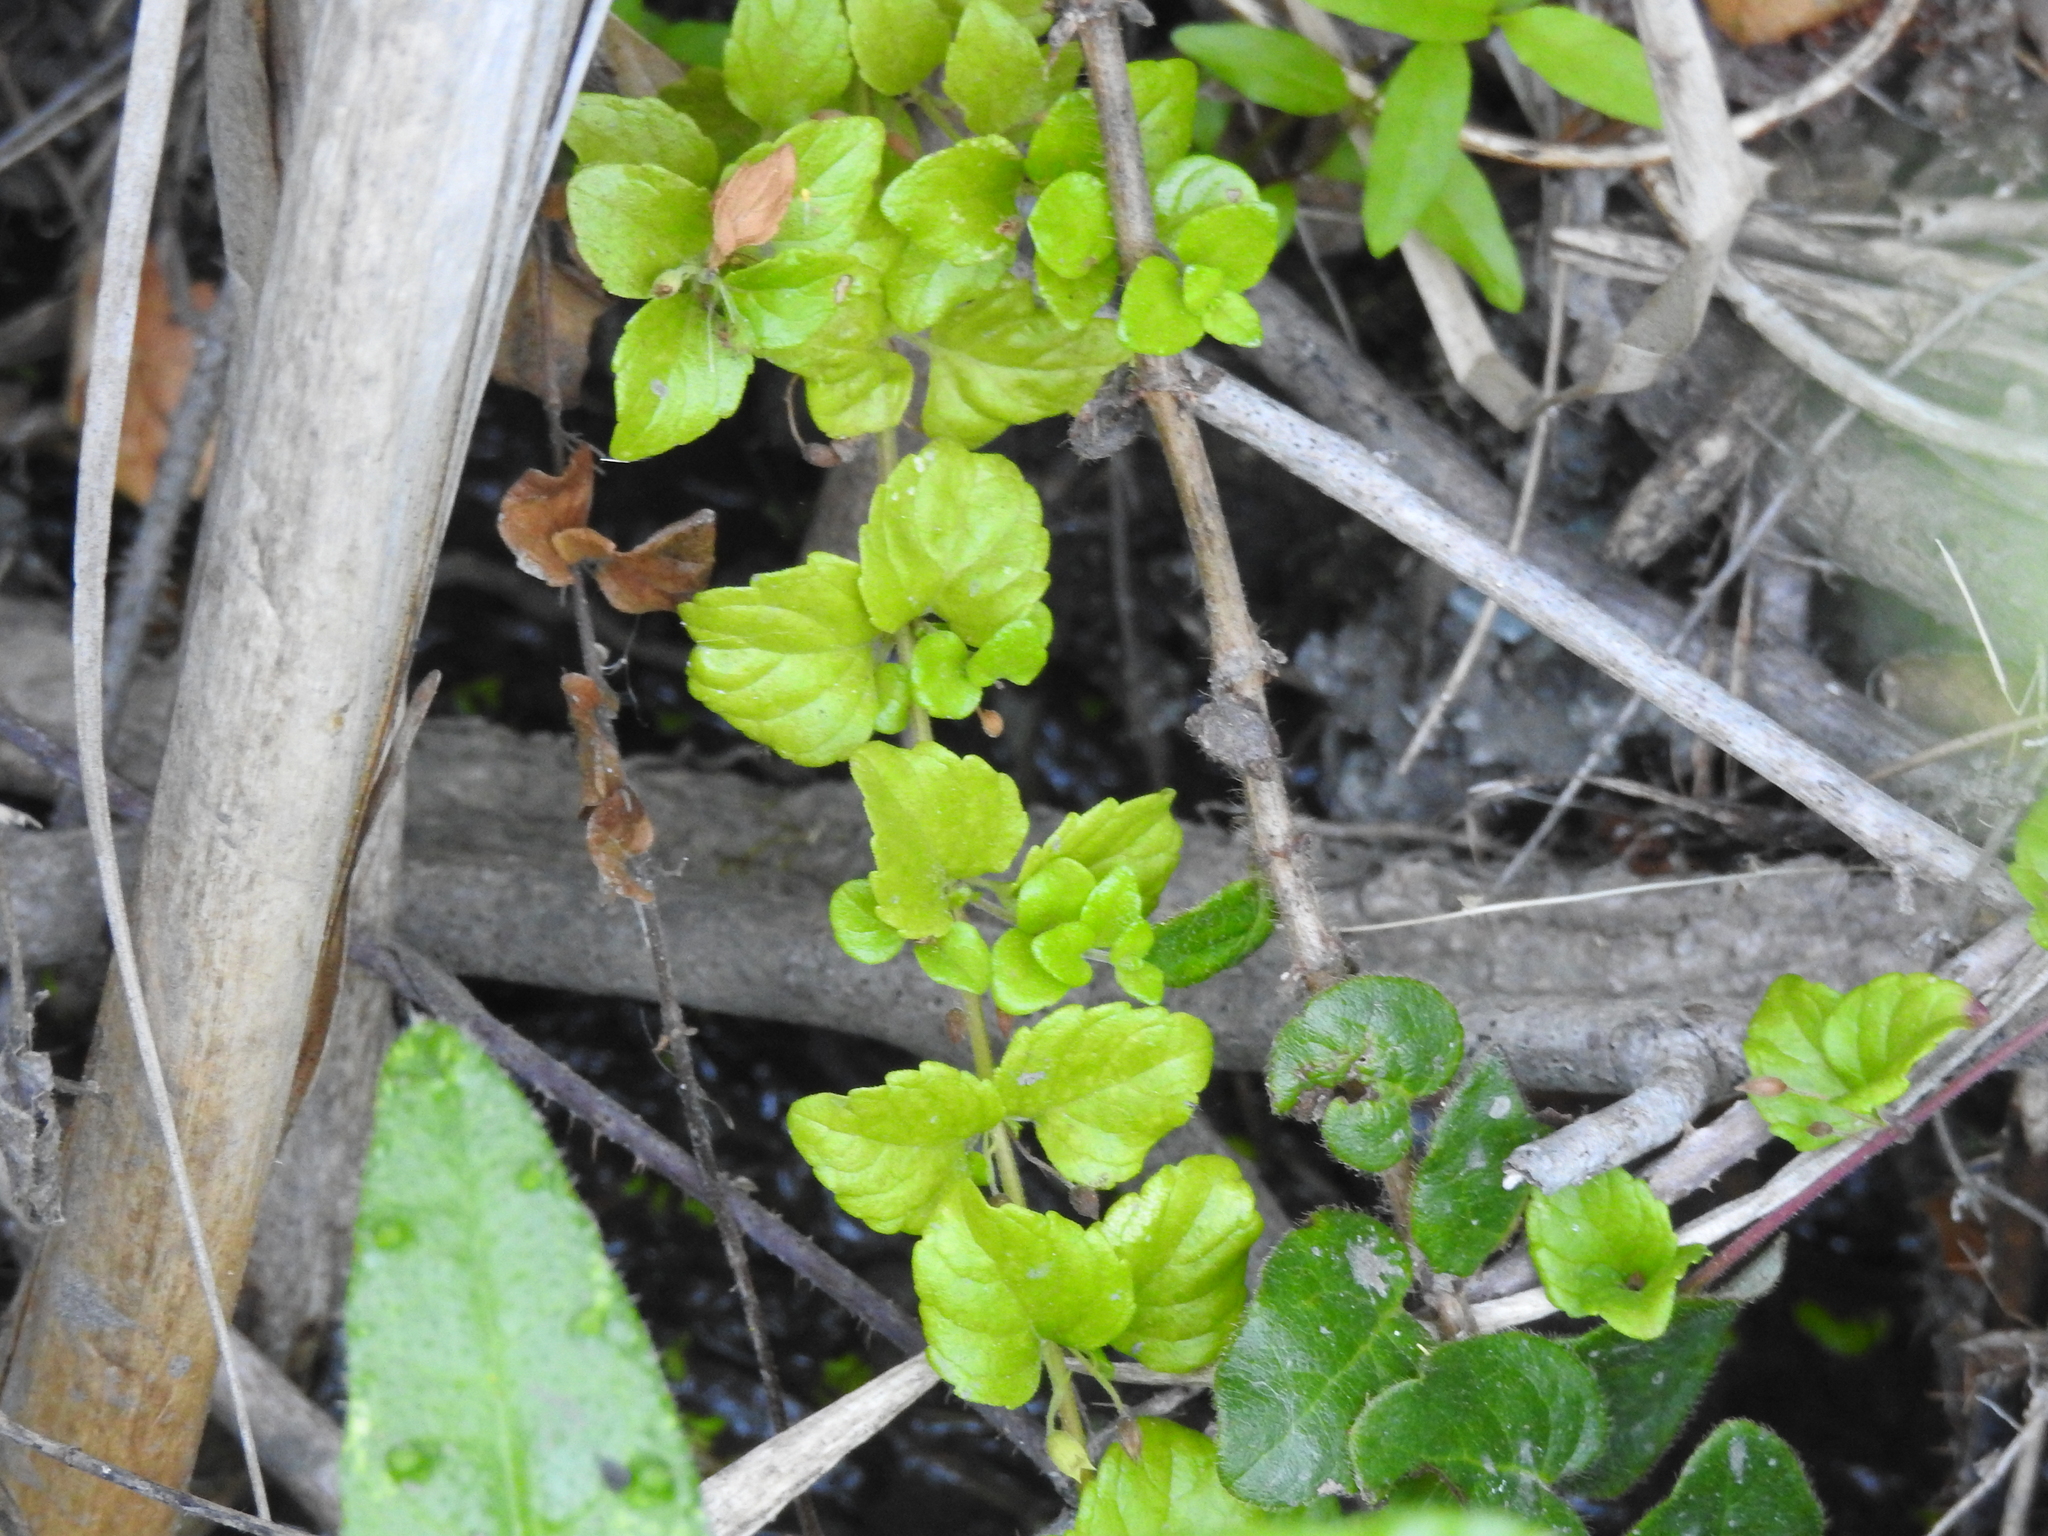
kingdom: Plantae
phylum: Tracheophyta
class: Magnoliopsida
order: Lamiales
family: Lamiaceae
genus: Micromeria
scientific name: Micromeria douglasii
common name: Yerba buena
